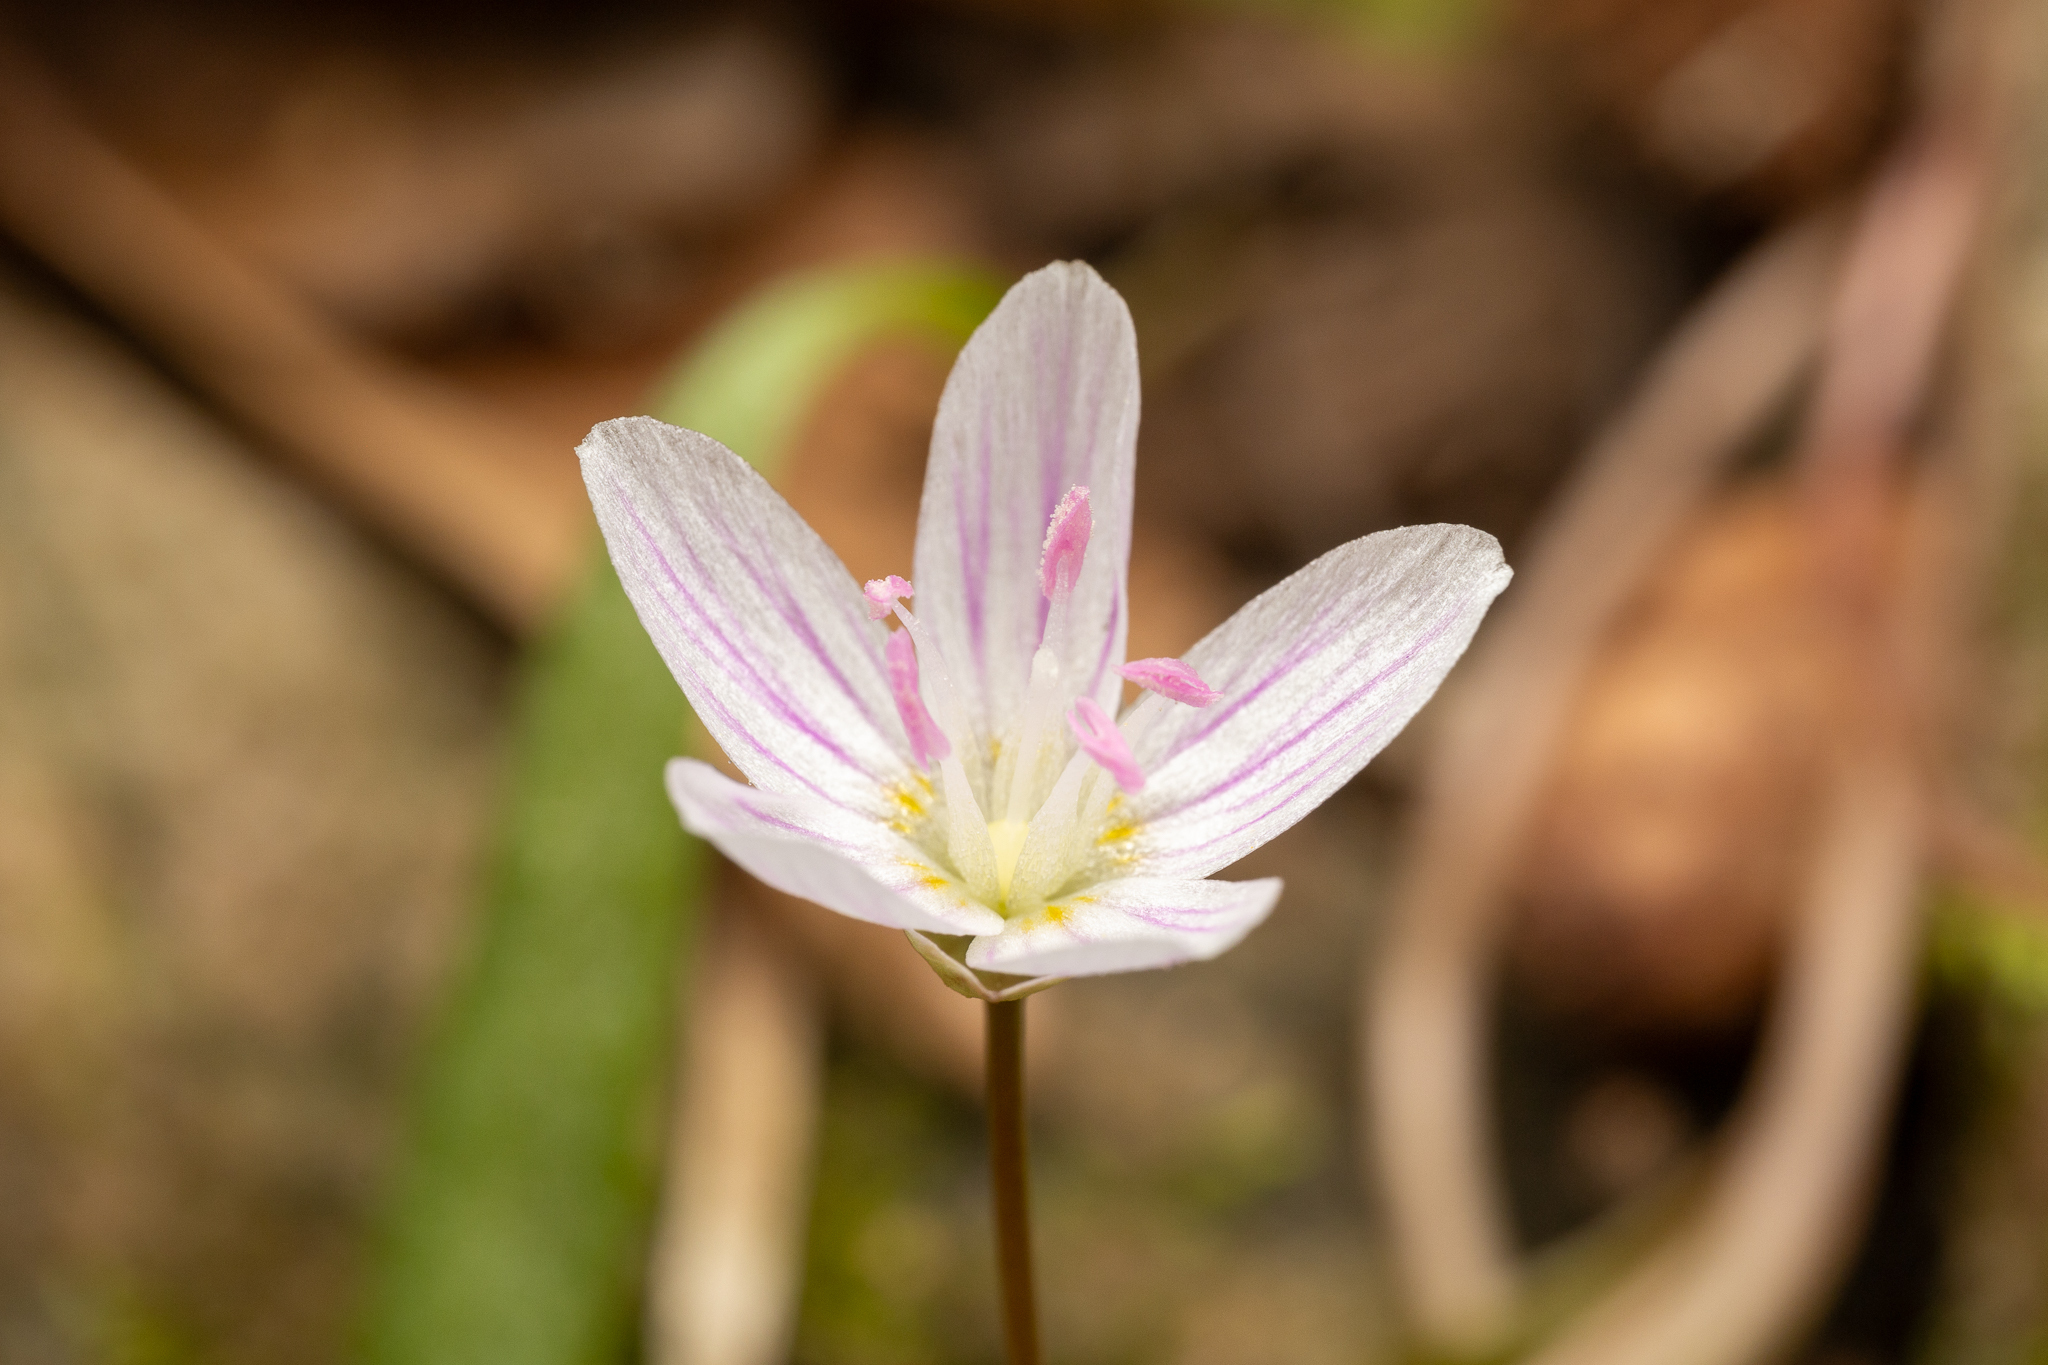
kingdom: Plantae
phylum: Tracheophyta
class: Magnoliopsida
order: Caryophyllales
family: Montiaceae
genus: Claytonia
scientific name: Claytonia virginica
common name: Virginia springbeauty
